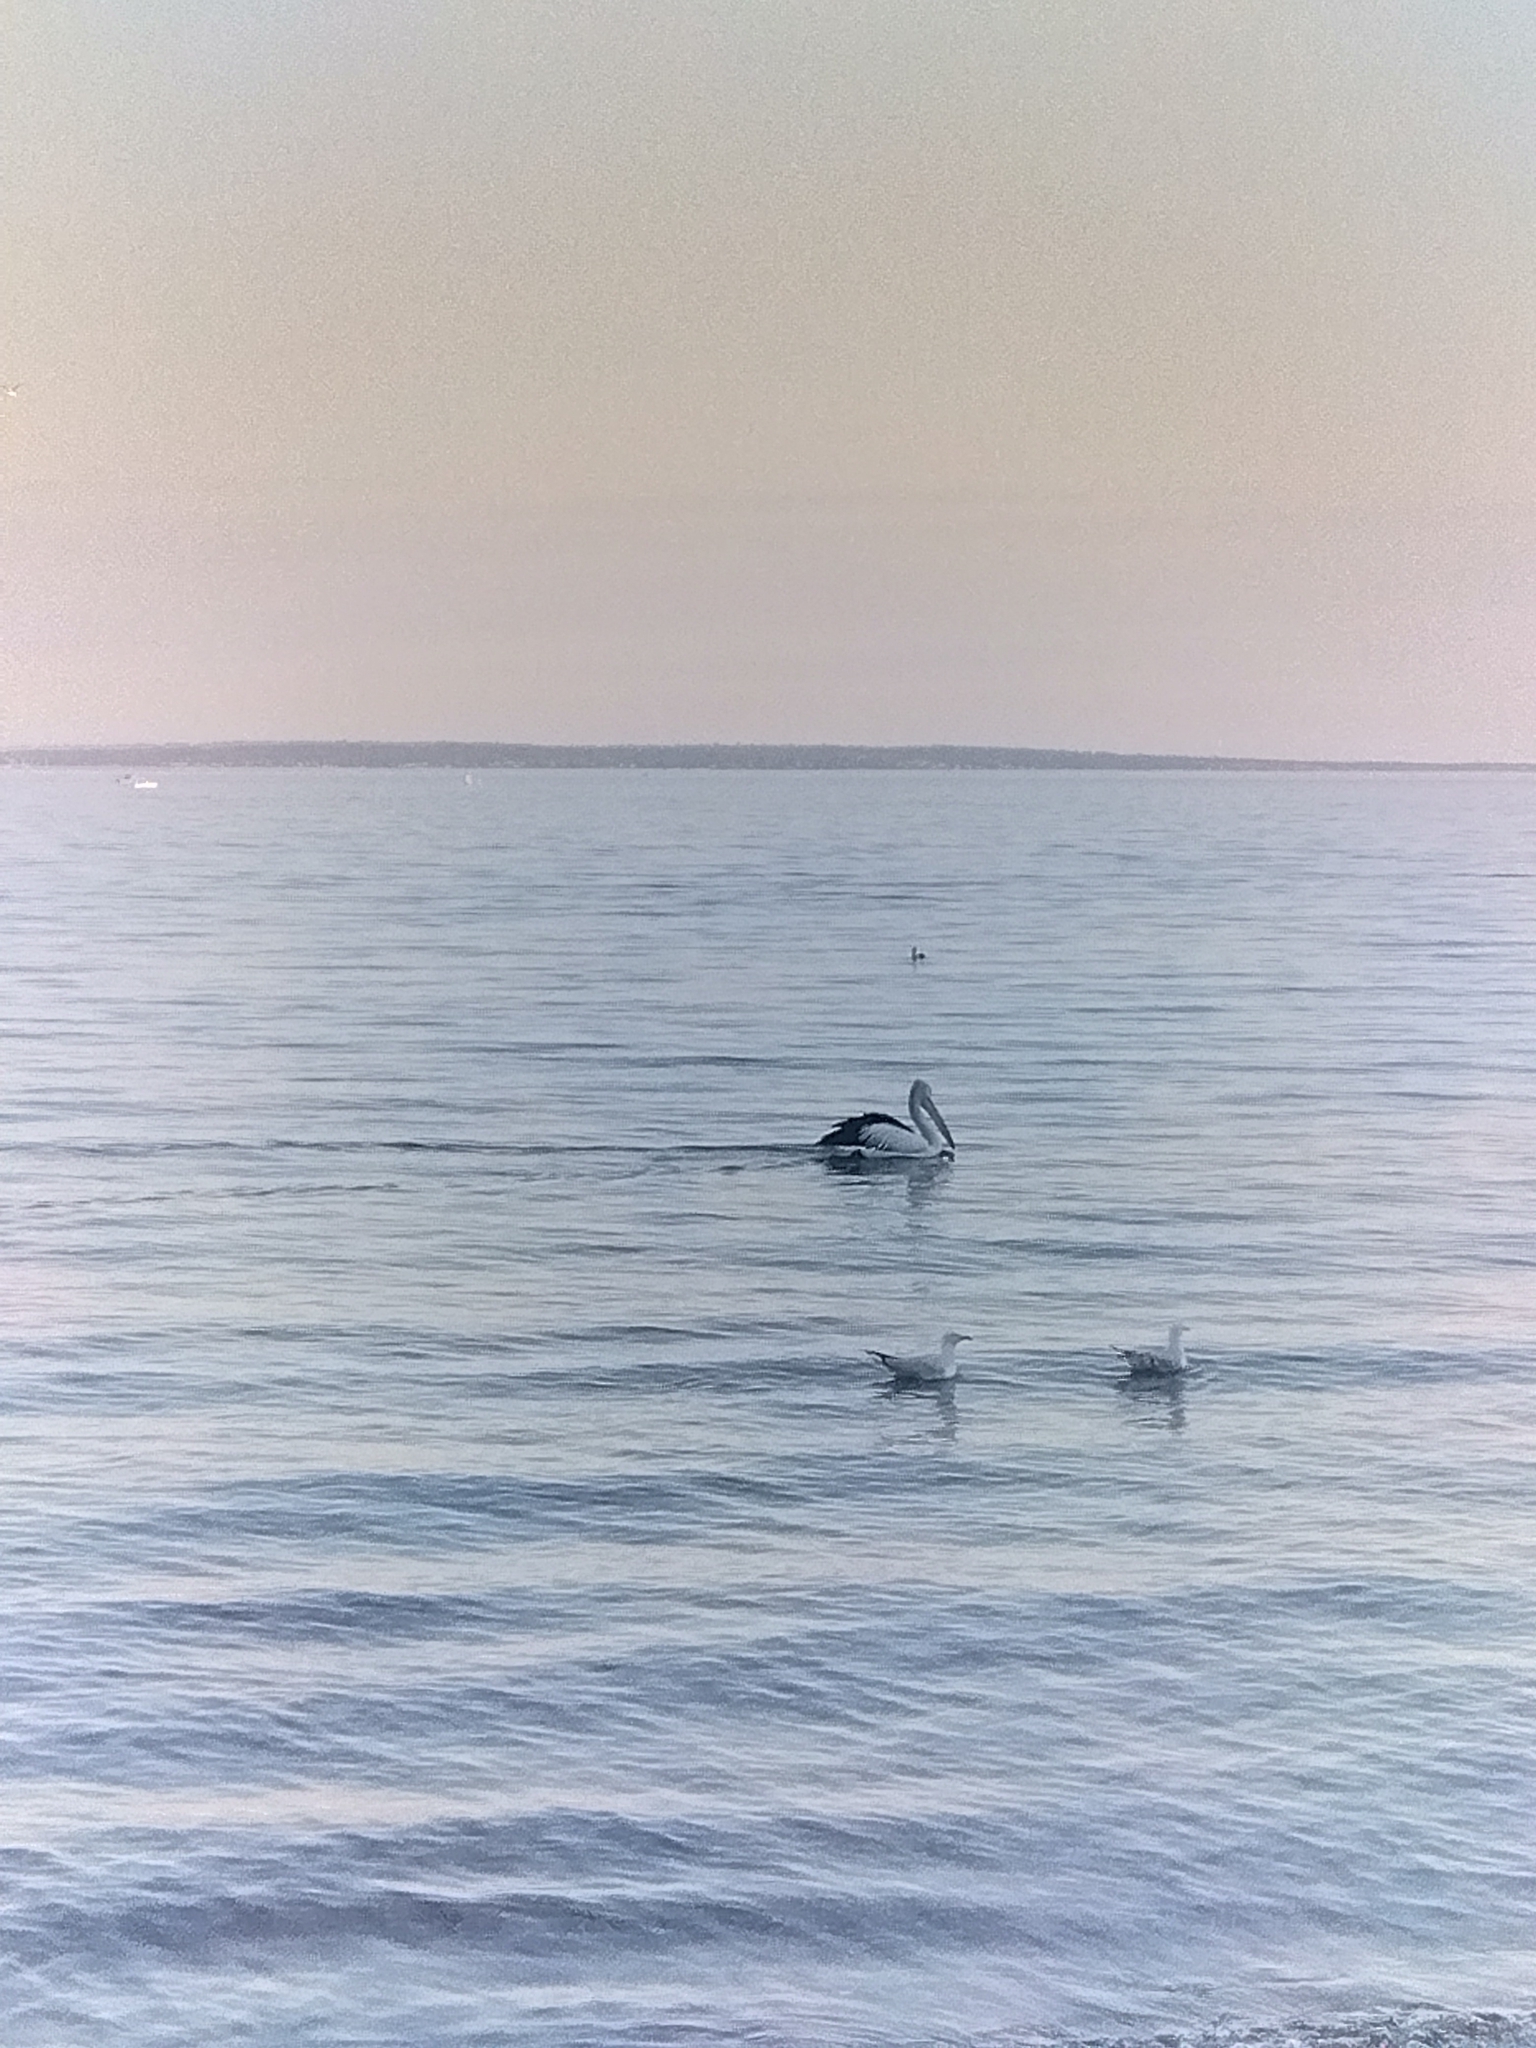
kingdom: Animalia
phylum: Chordata
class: Aves
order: Pelecaniformes
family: Pelecanidae
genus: Pelecanus
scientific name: Pelecanus conspicillatus
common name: Australian pelican
